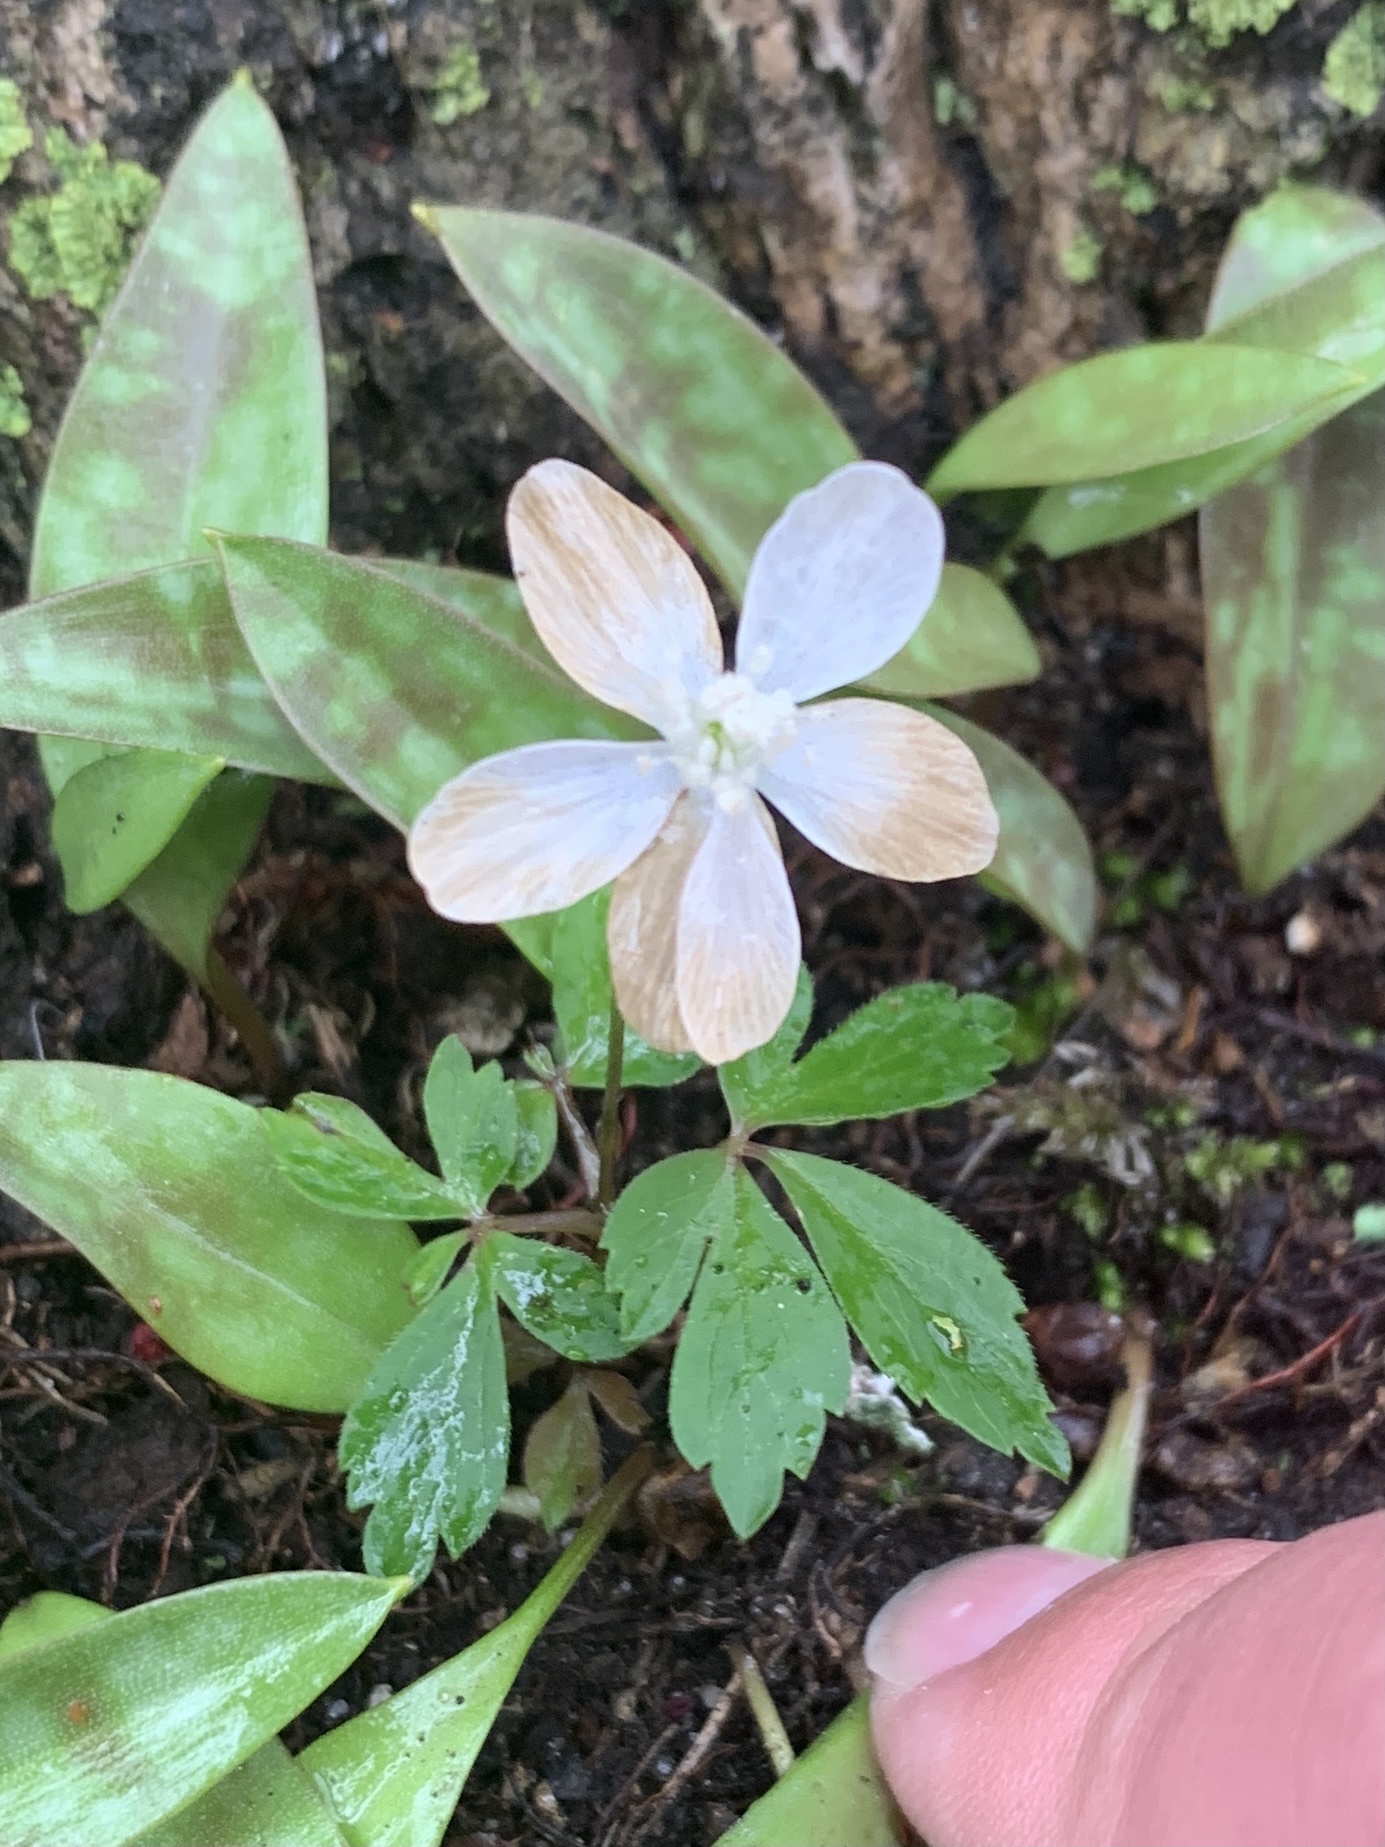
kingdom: Plantae
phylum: Tracheophyta
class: Magnoliopsida
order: Ranunculales
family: Ranunculaceae
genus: Anemone
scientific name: Anemone quinquefolia
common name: Wood anemone
